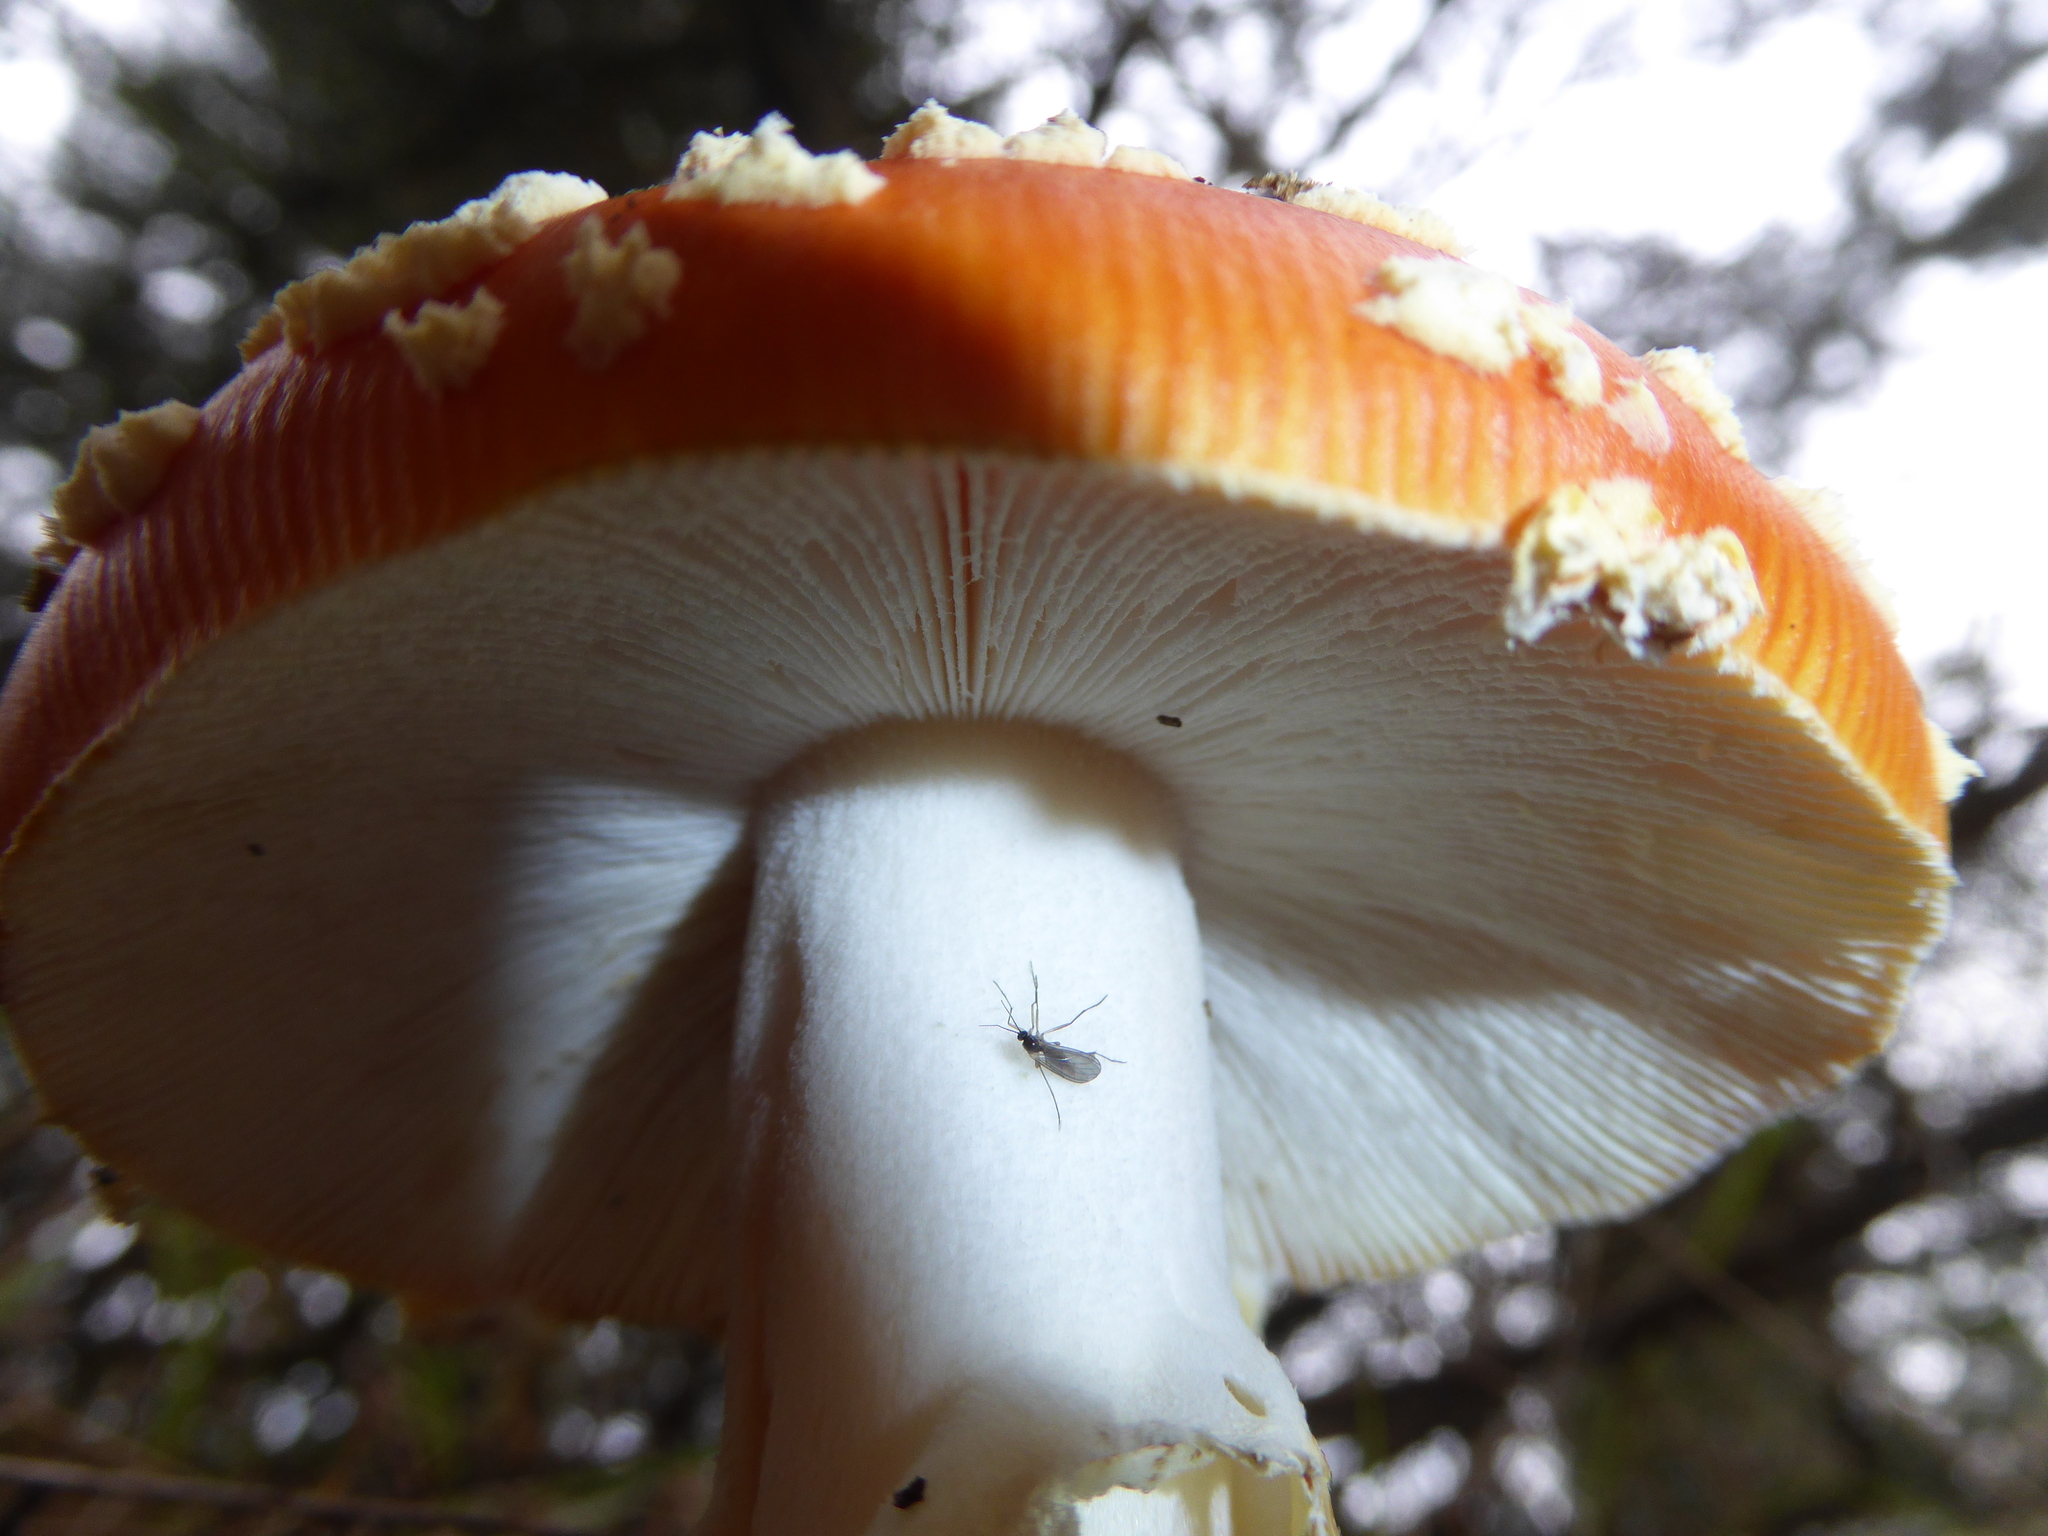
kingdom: Fungi
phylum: Basidiomycota
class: Agaricomycetes
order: Agaricales
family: Amanitaceae
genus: Amanita
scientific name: Amanita muscaria
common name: Fly agaric
